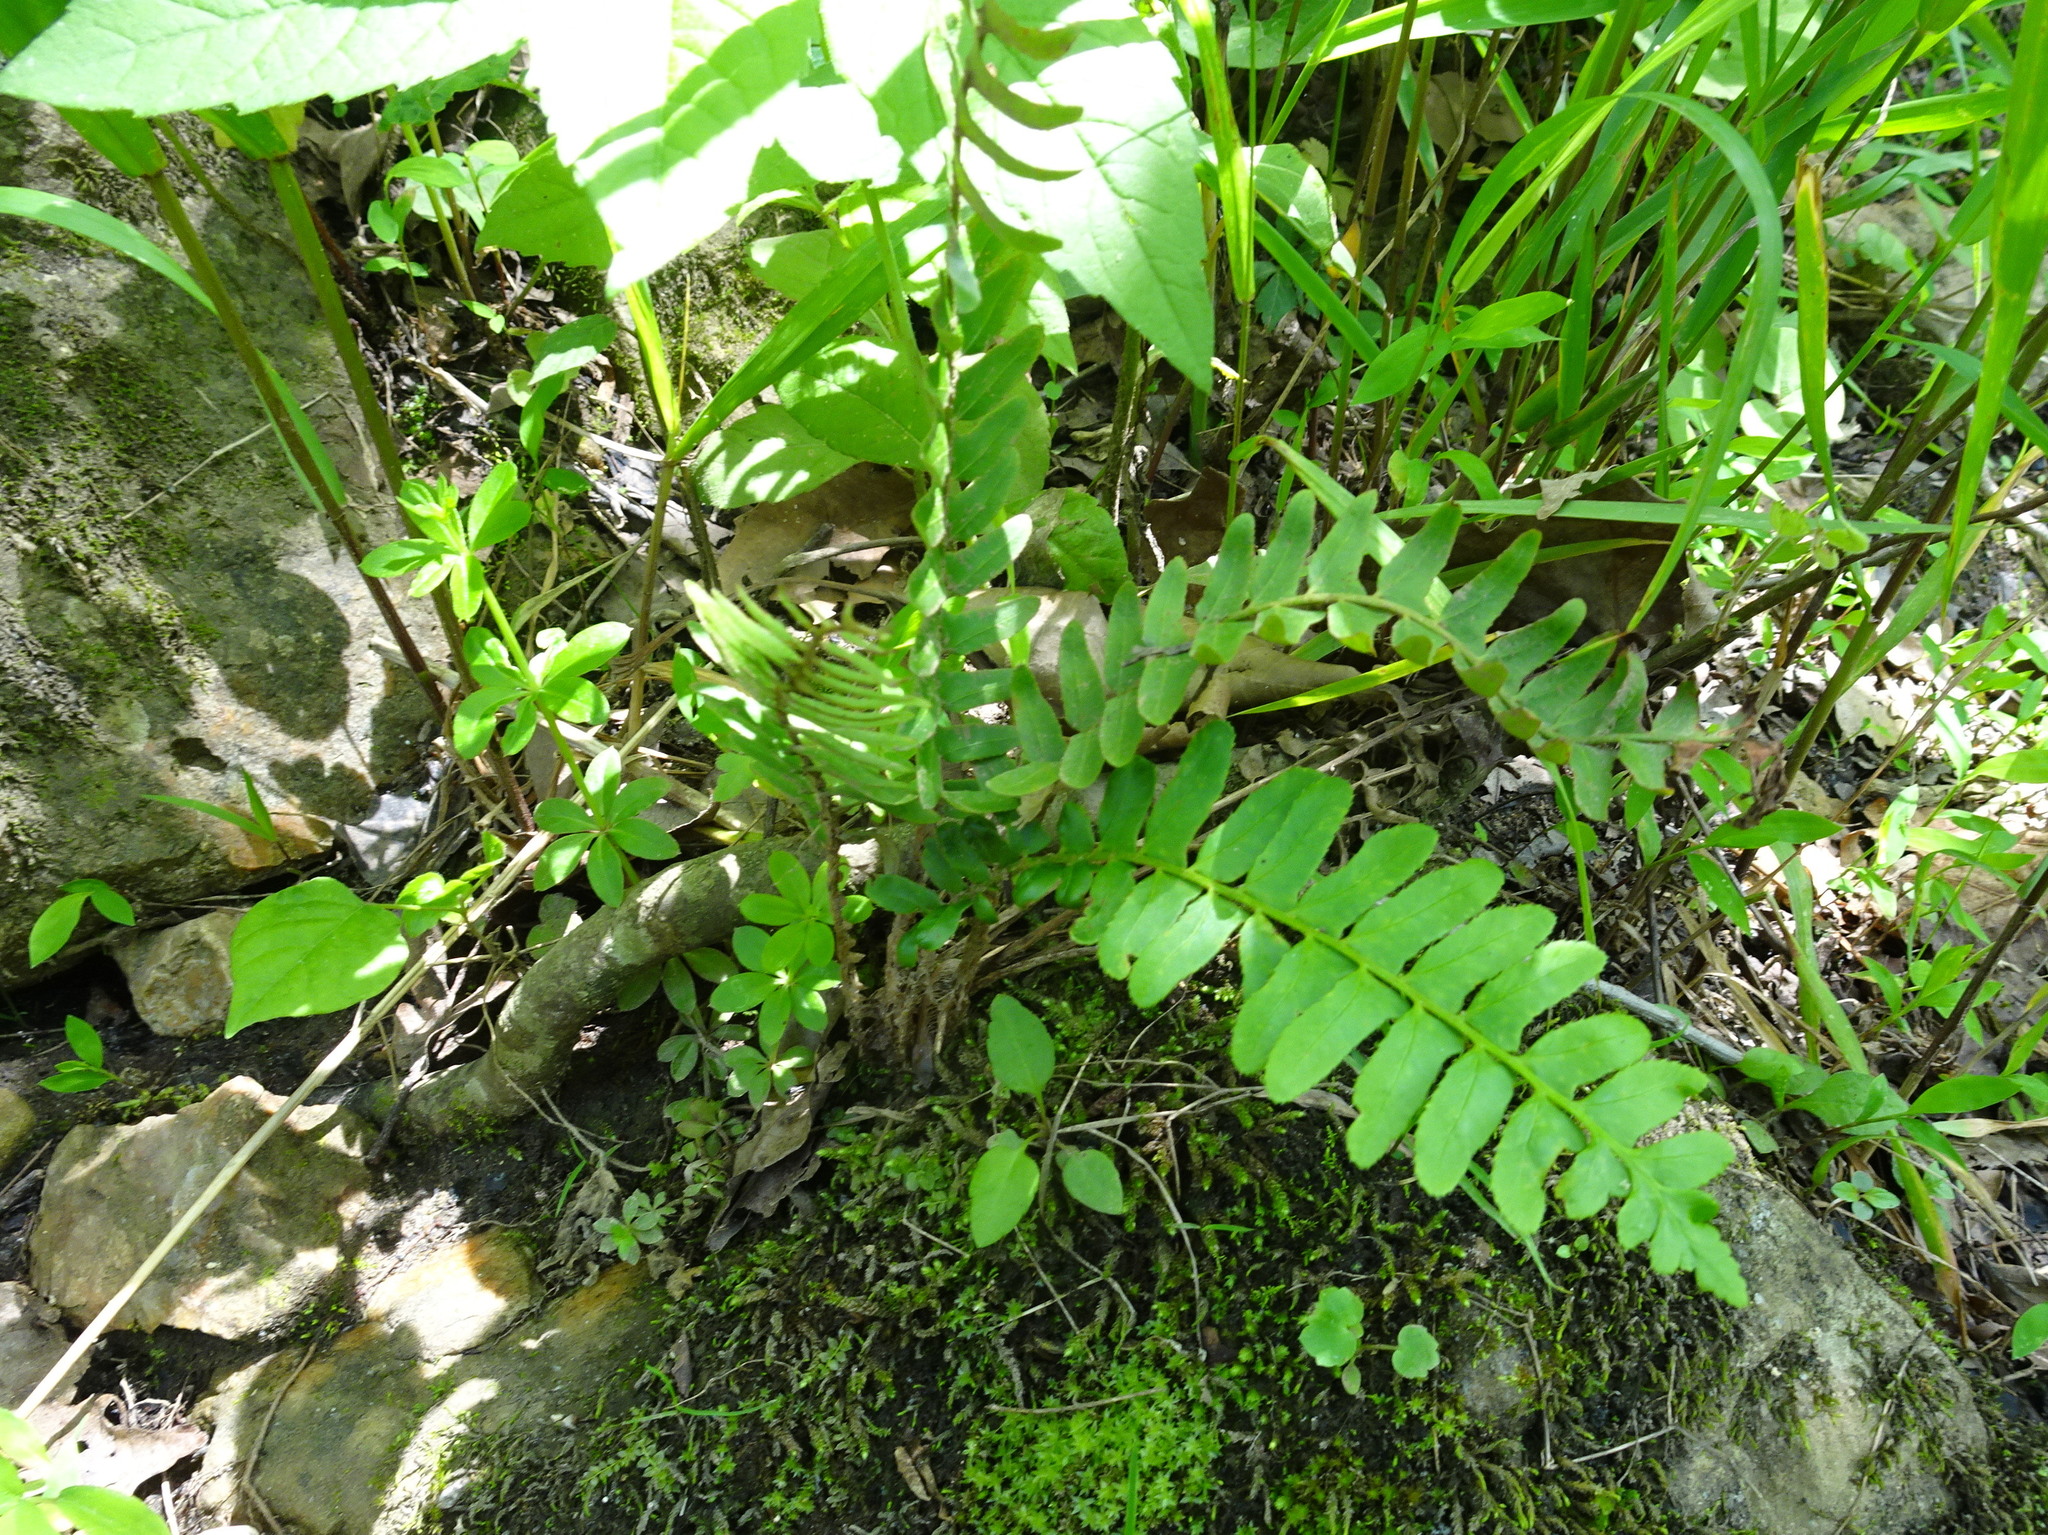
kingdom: Plantae
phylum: Tracheophyta
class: Polypodiopsida
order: Polypodiales
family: Dryopteridaceae
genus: Polystichum
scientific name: Polystichum acrostichoides
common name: Christmas fern
